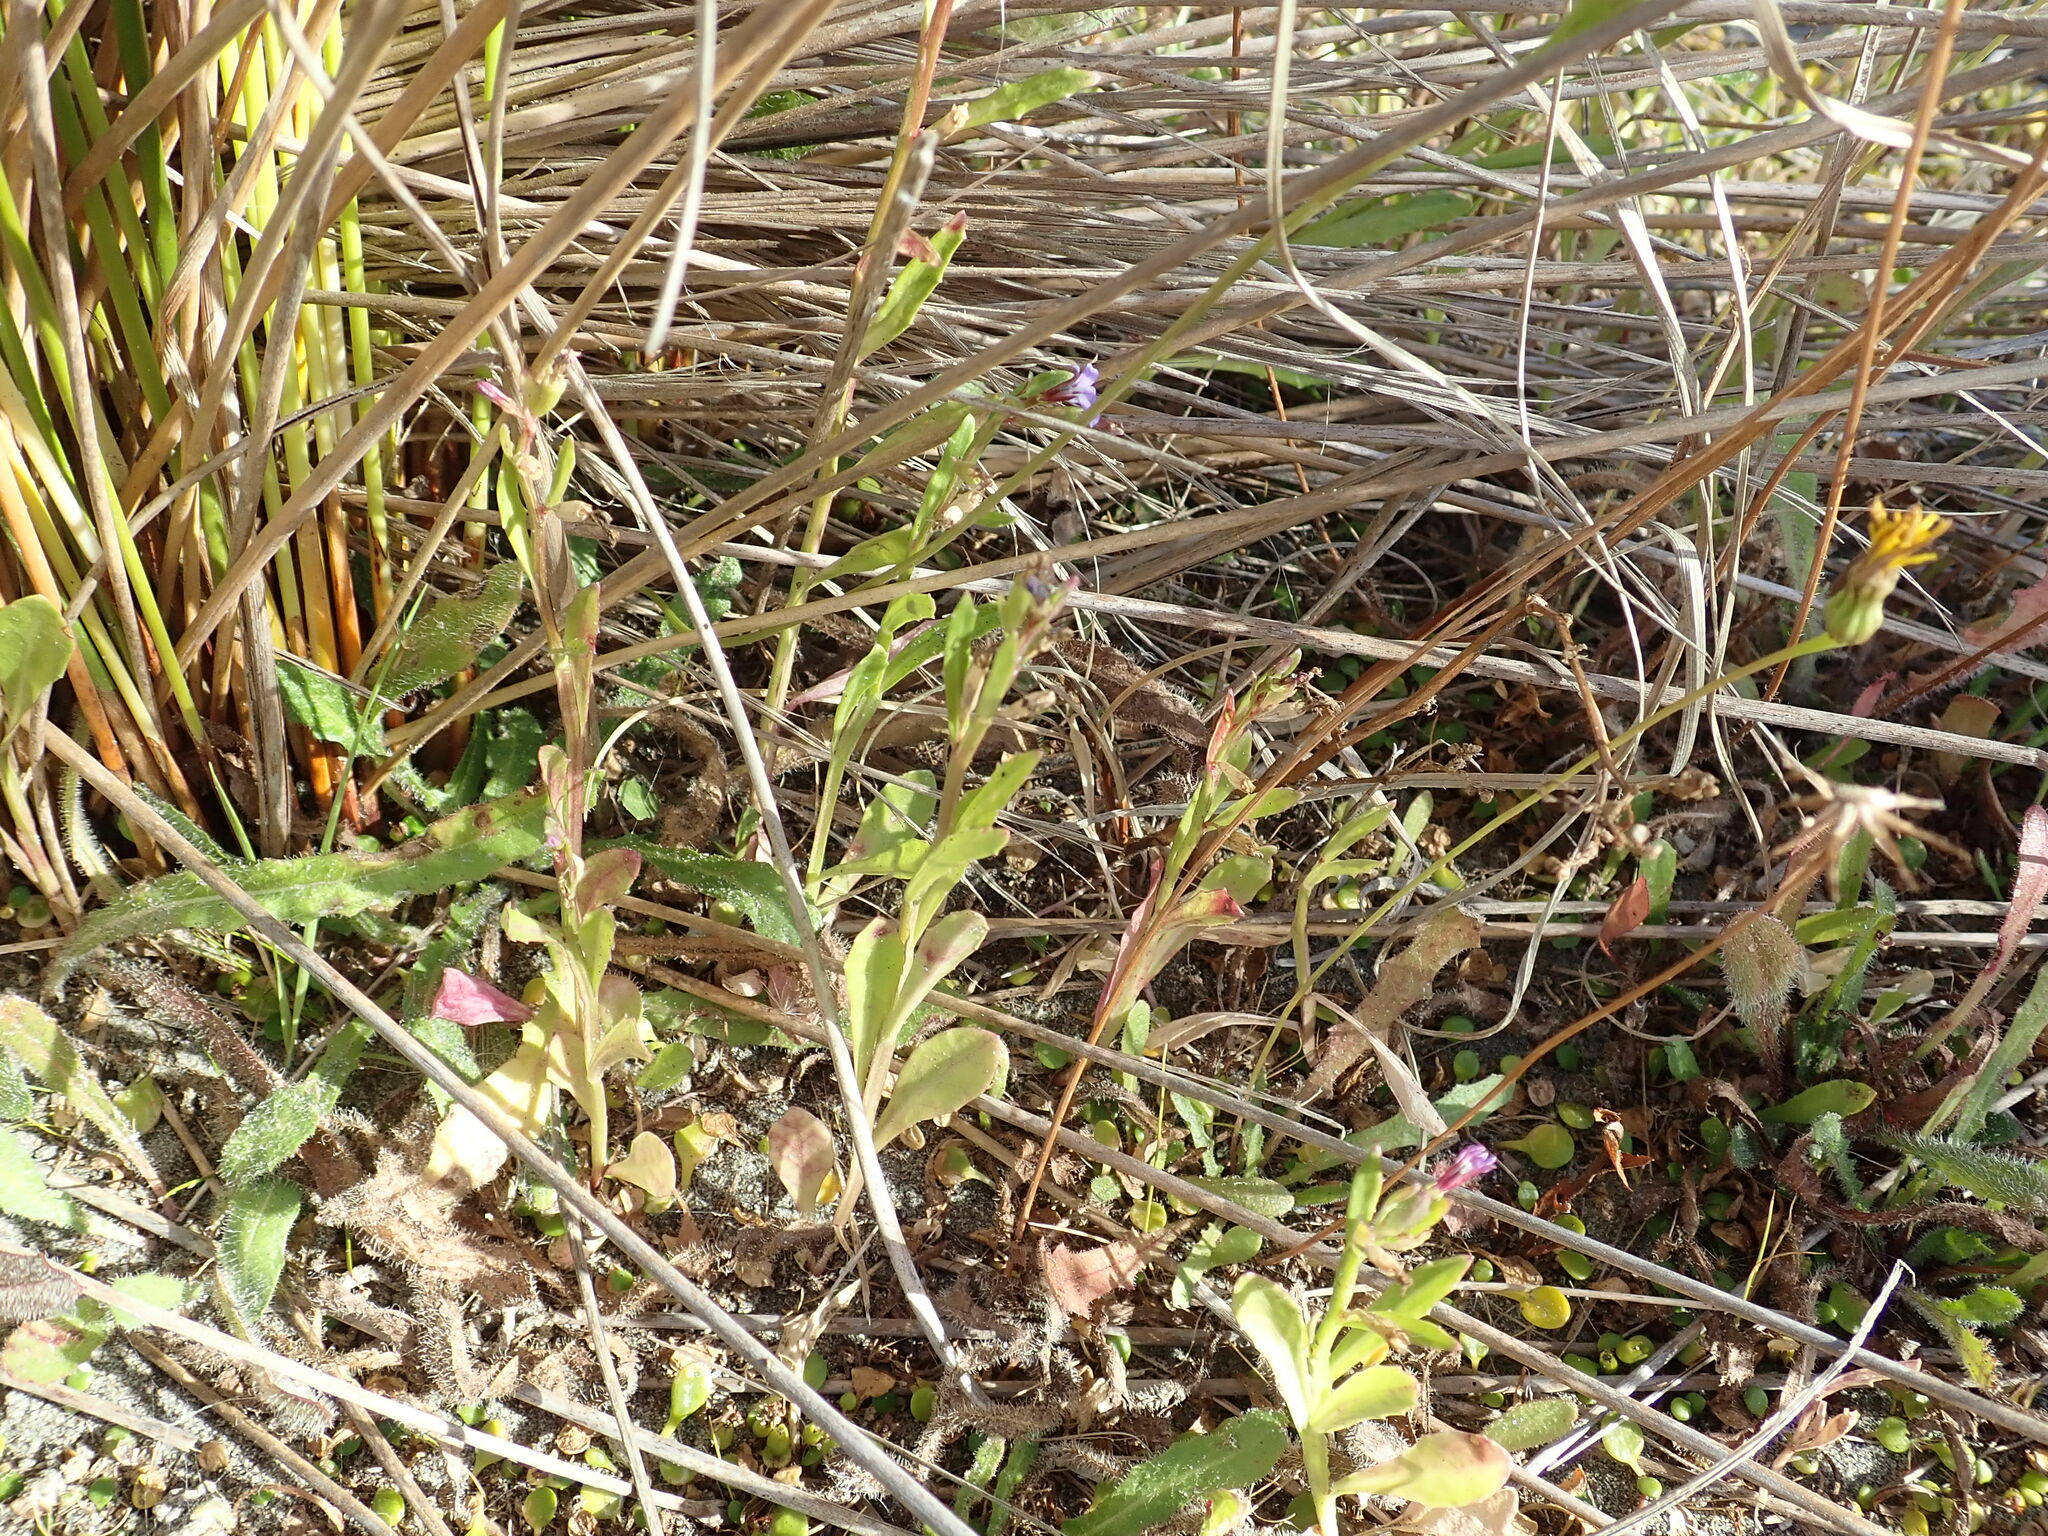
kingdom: Plantae
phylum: Tracheophyta
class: Magnoliopsida
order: Asterales
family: Campanulaceae
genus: Lobelia
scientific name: Lobelia anceps
